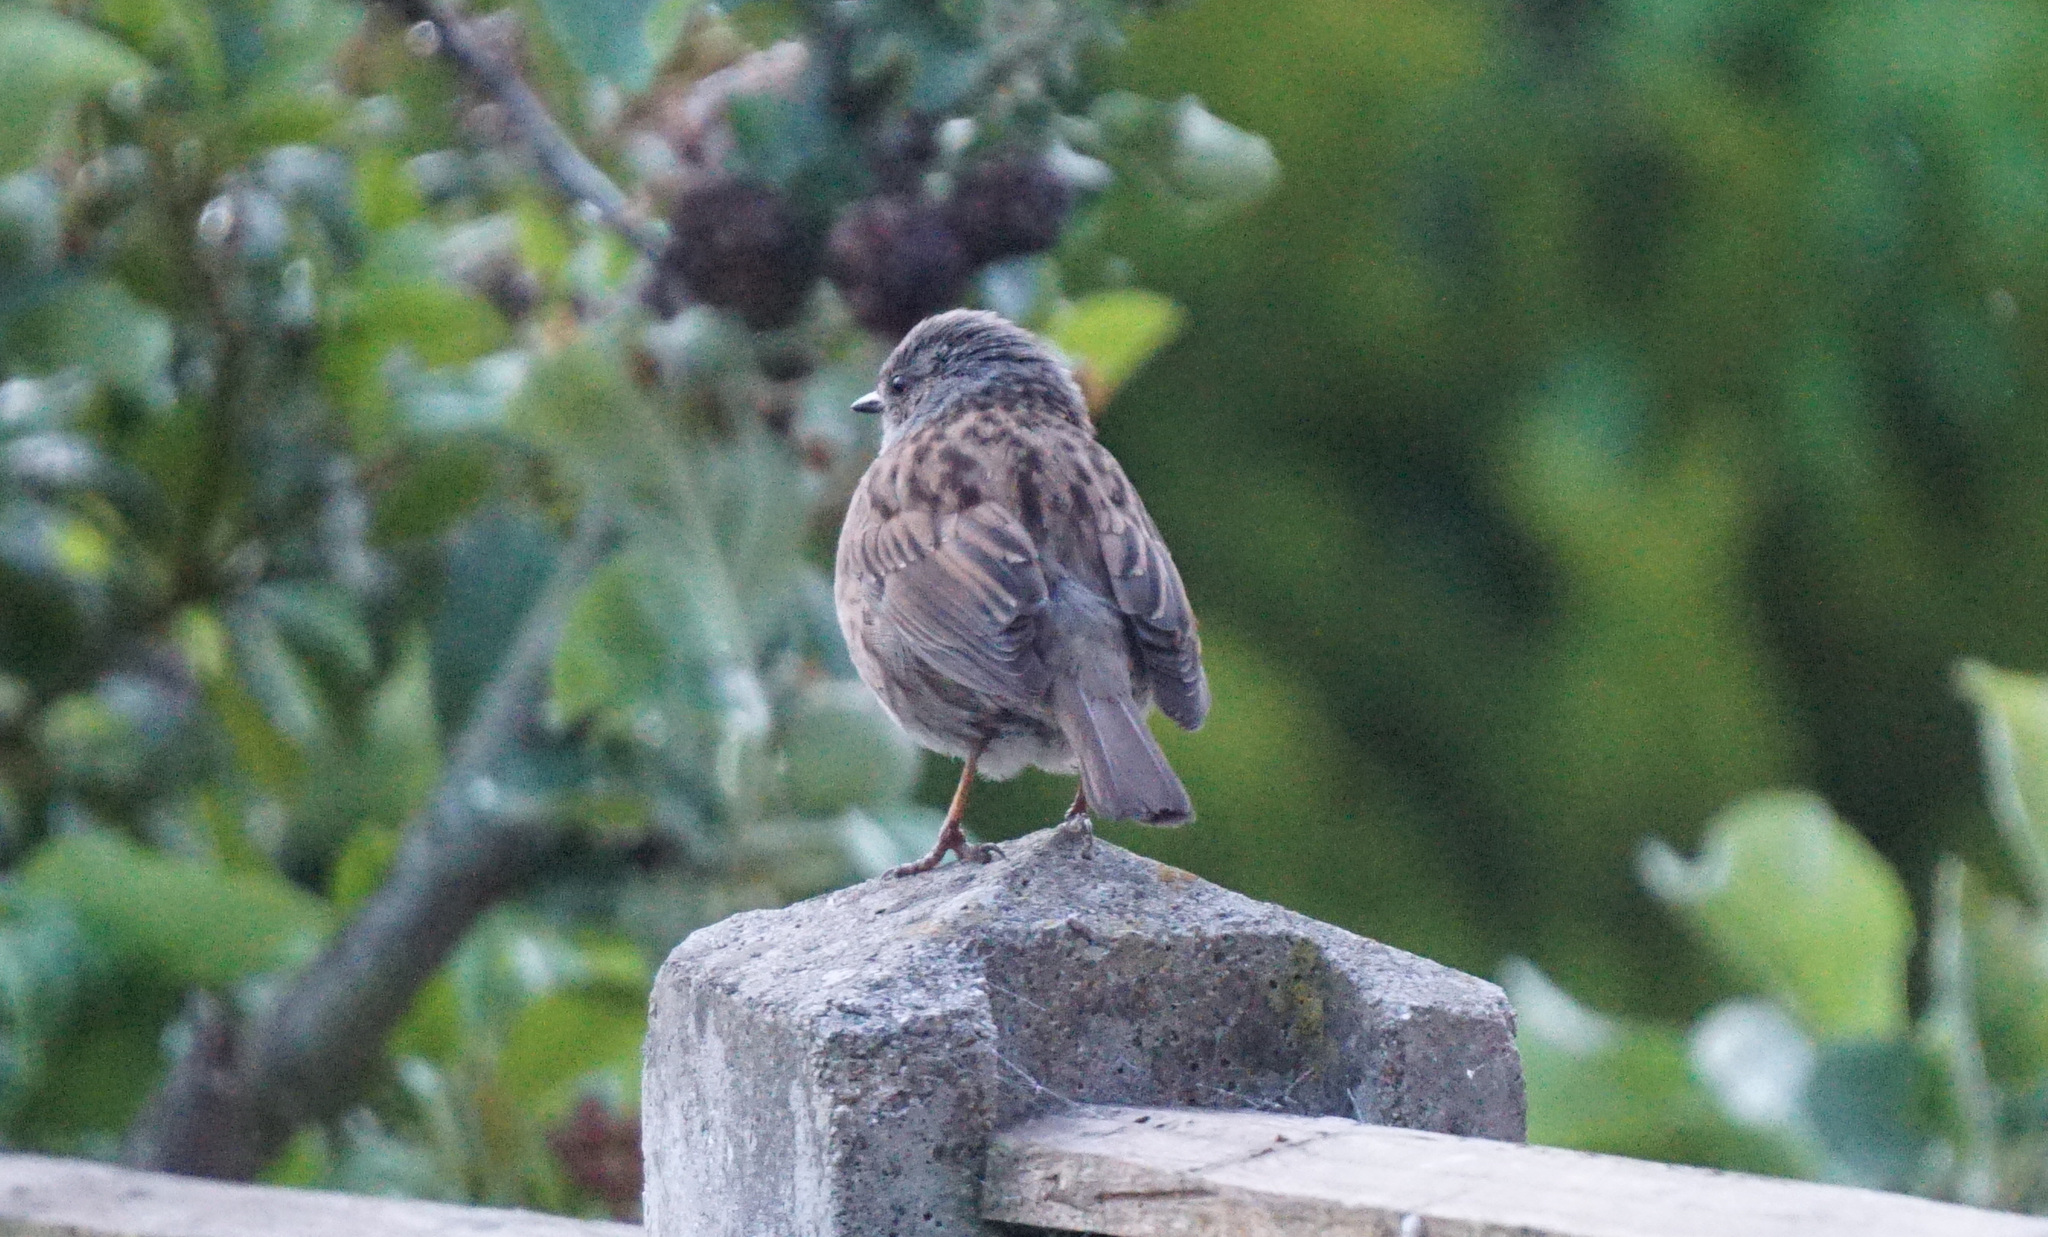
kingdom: Animalia
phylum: Chordata
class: Aves
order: Passeriformes
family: Prunellidae
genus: Prunella
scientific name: Prunella modularis
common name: Dunnock
